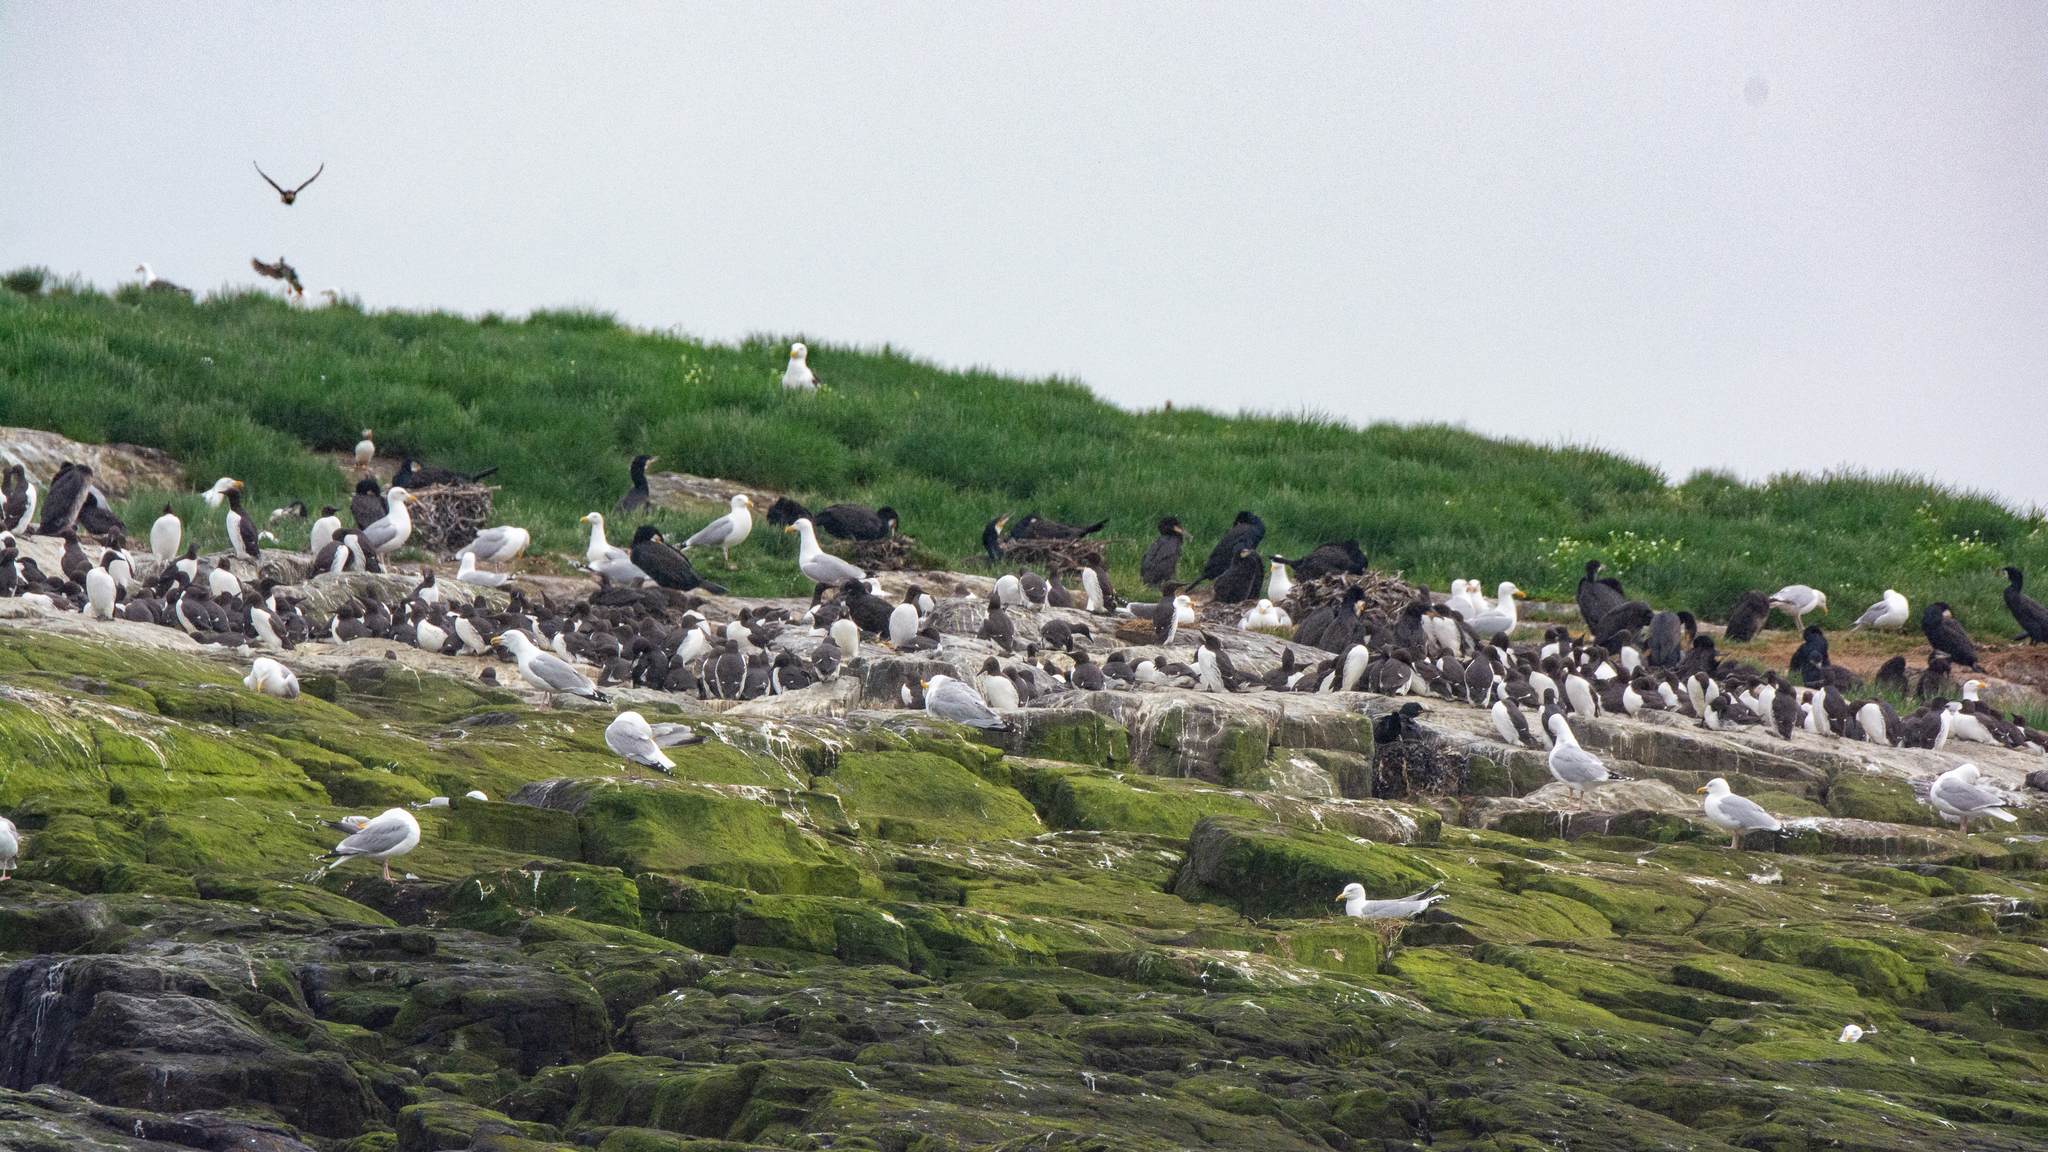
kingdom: Animalia
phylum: Chordata
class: Aves
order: Charadriiformes
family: Alcidae
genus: Uria
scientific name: Uria aalge
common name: Common murre
